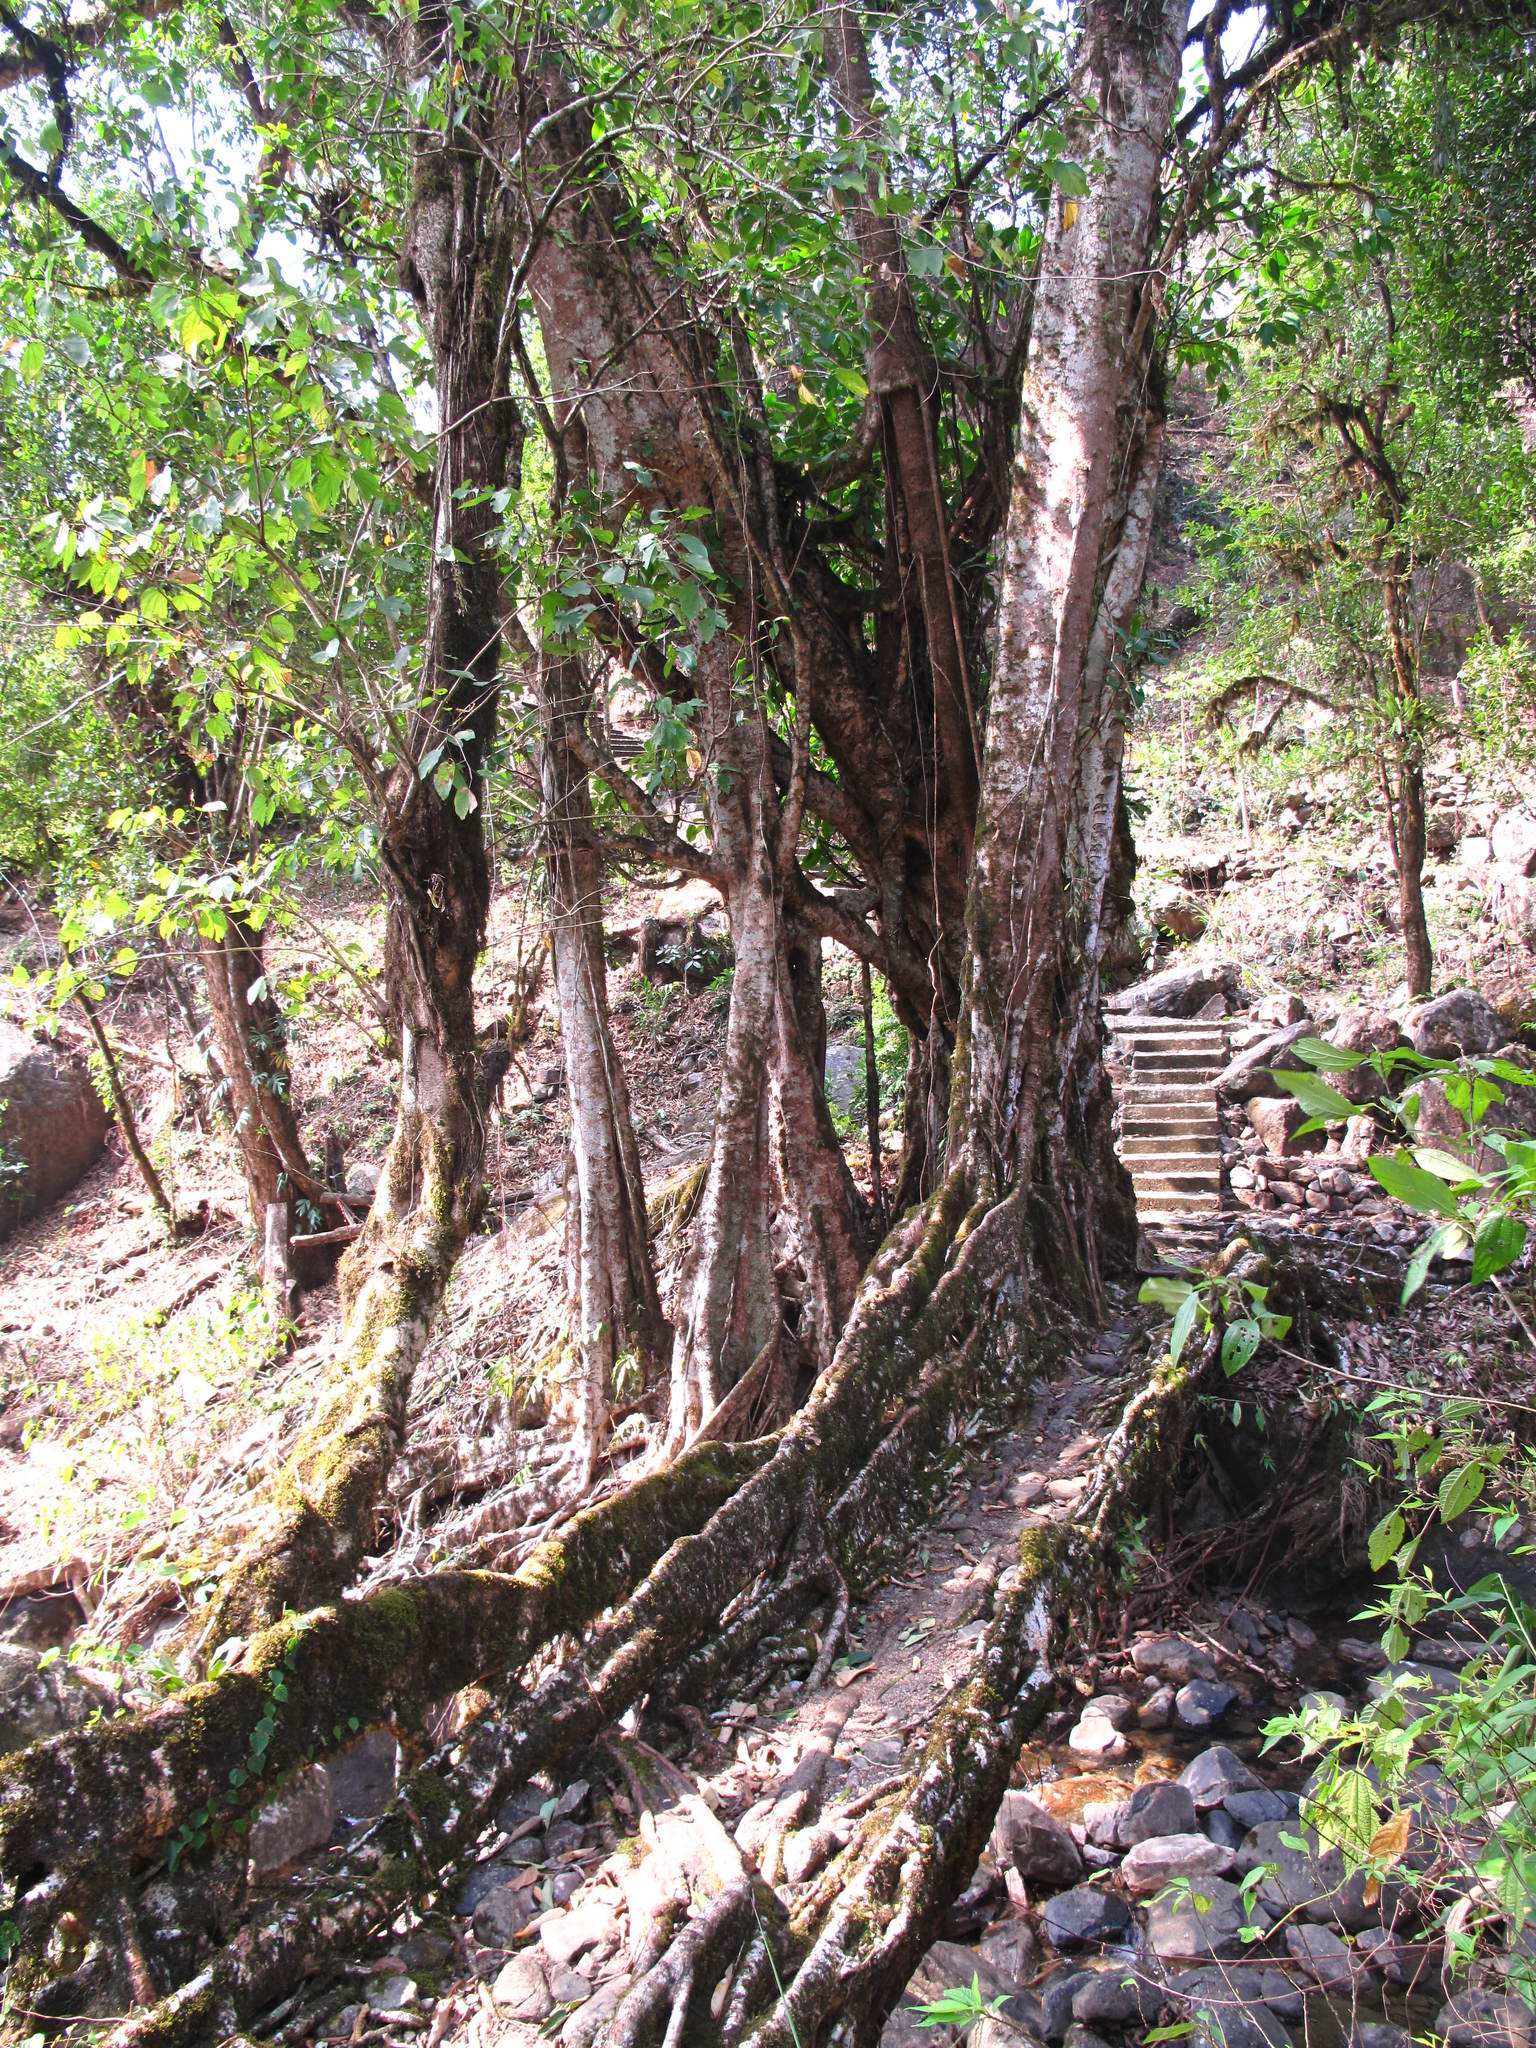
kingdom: Plantae
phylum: Tracheophyta
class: Magnoliopsida
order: Rosales
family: Moraceae
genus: Ficus
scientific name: Ficus elastica
